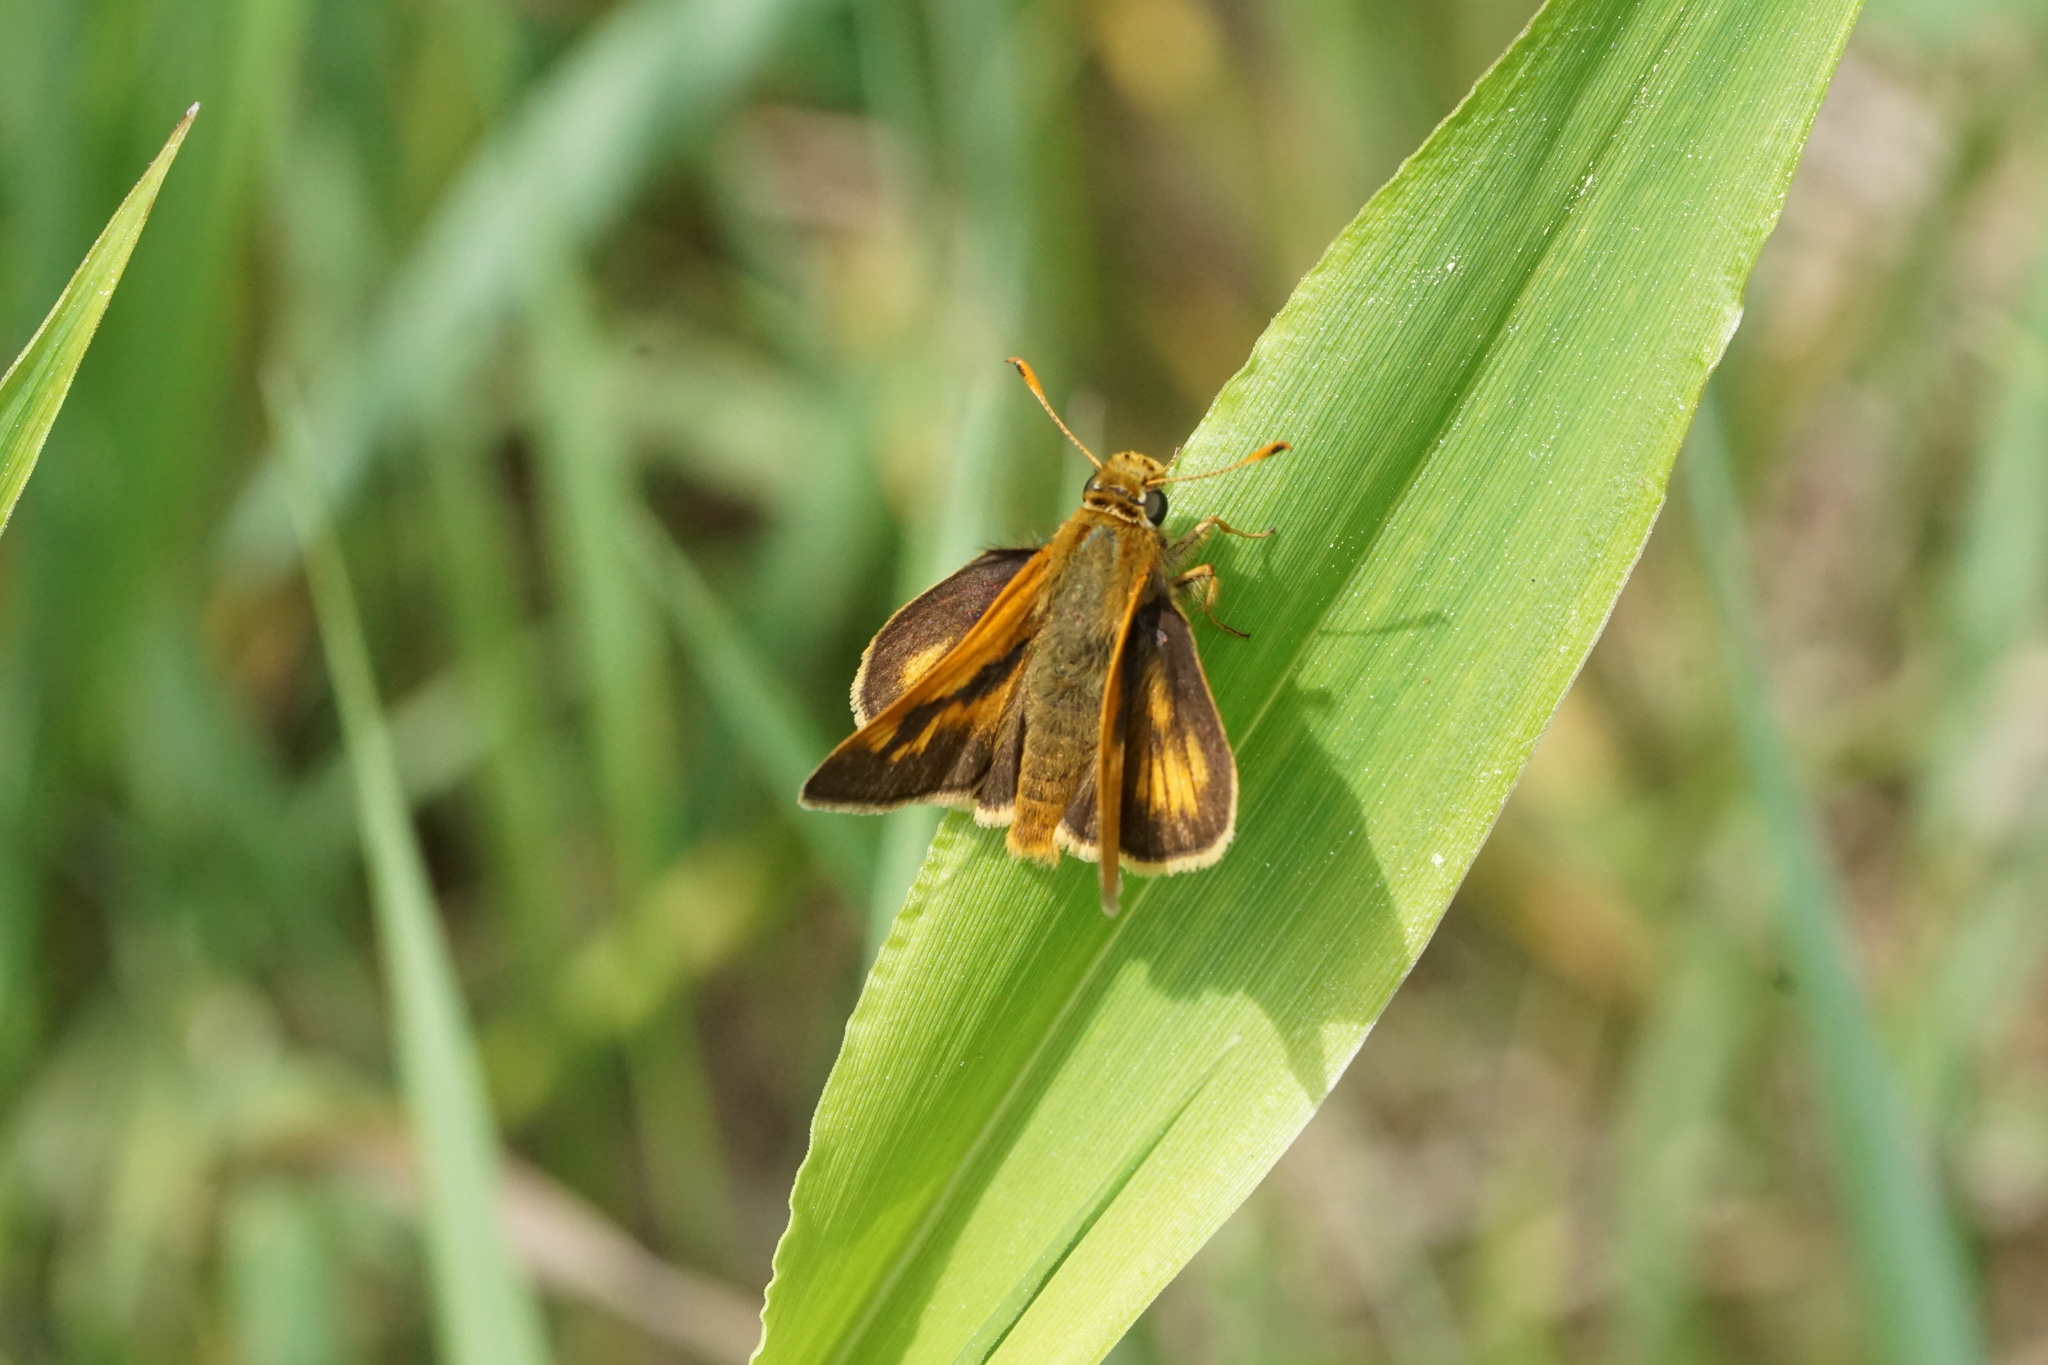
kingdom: Animalia
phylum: Arthropoda
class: Insecta
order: Lepidoptera
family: Hesperiidae
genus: Polites
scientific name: Polites mystic
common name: Long dash
